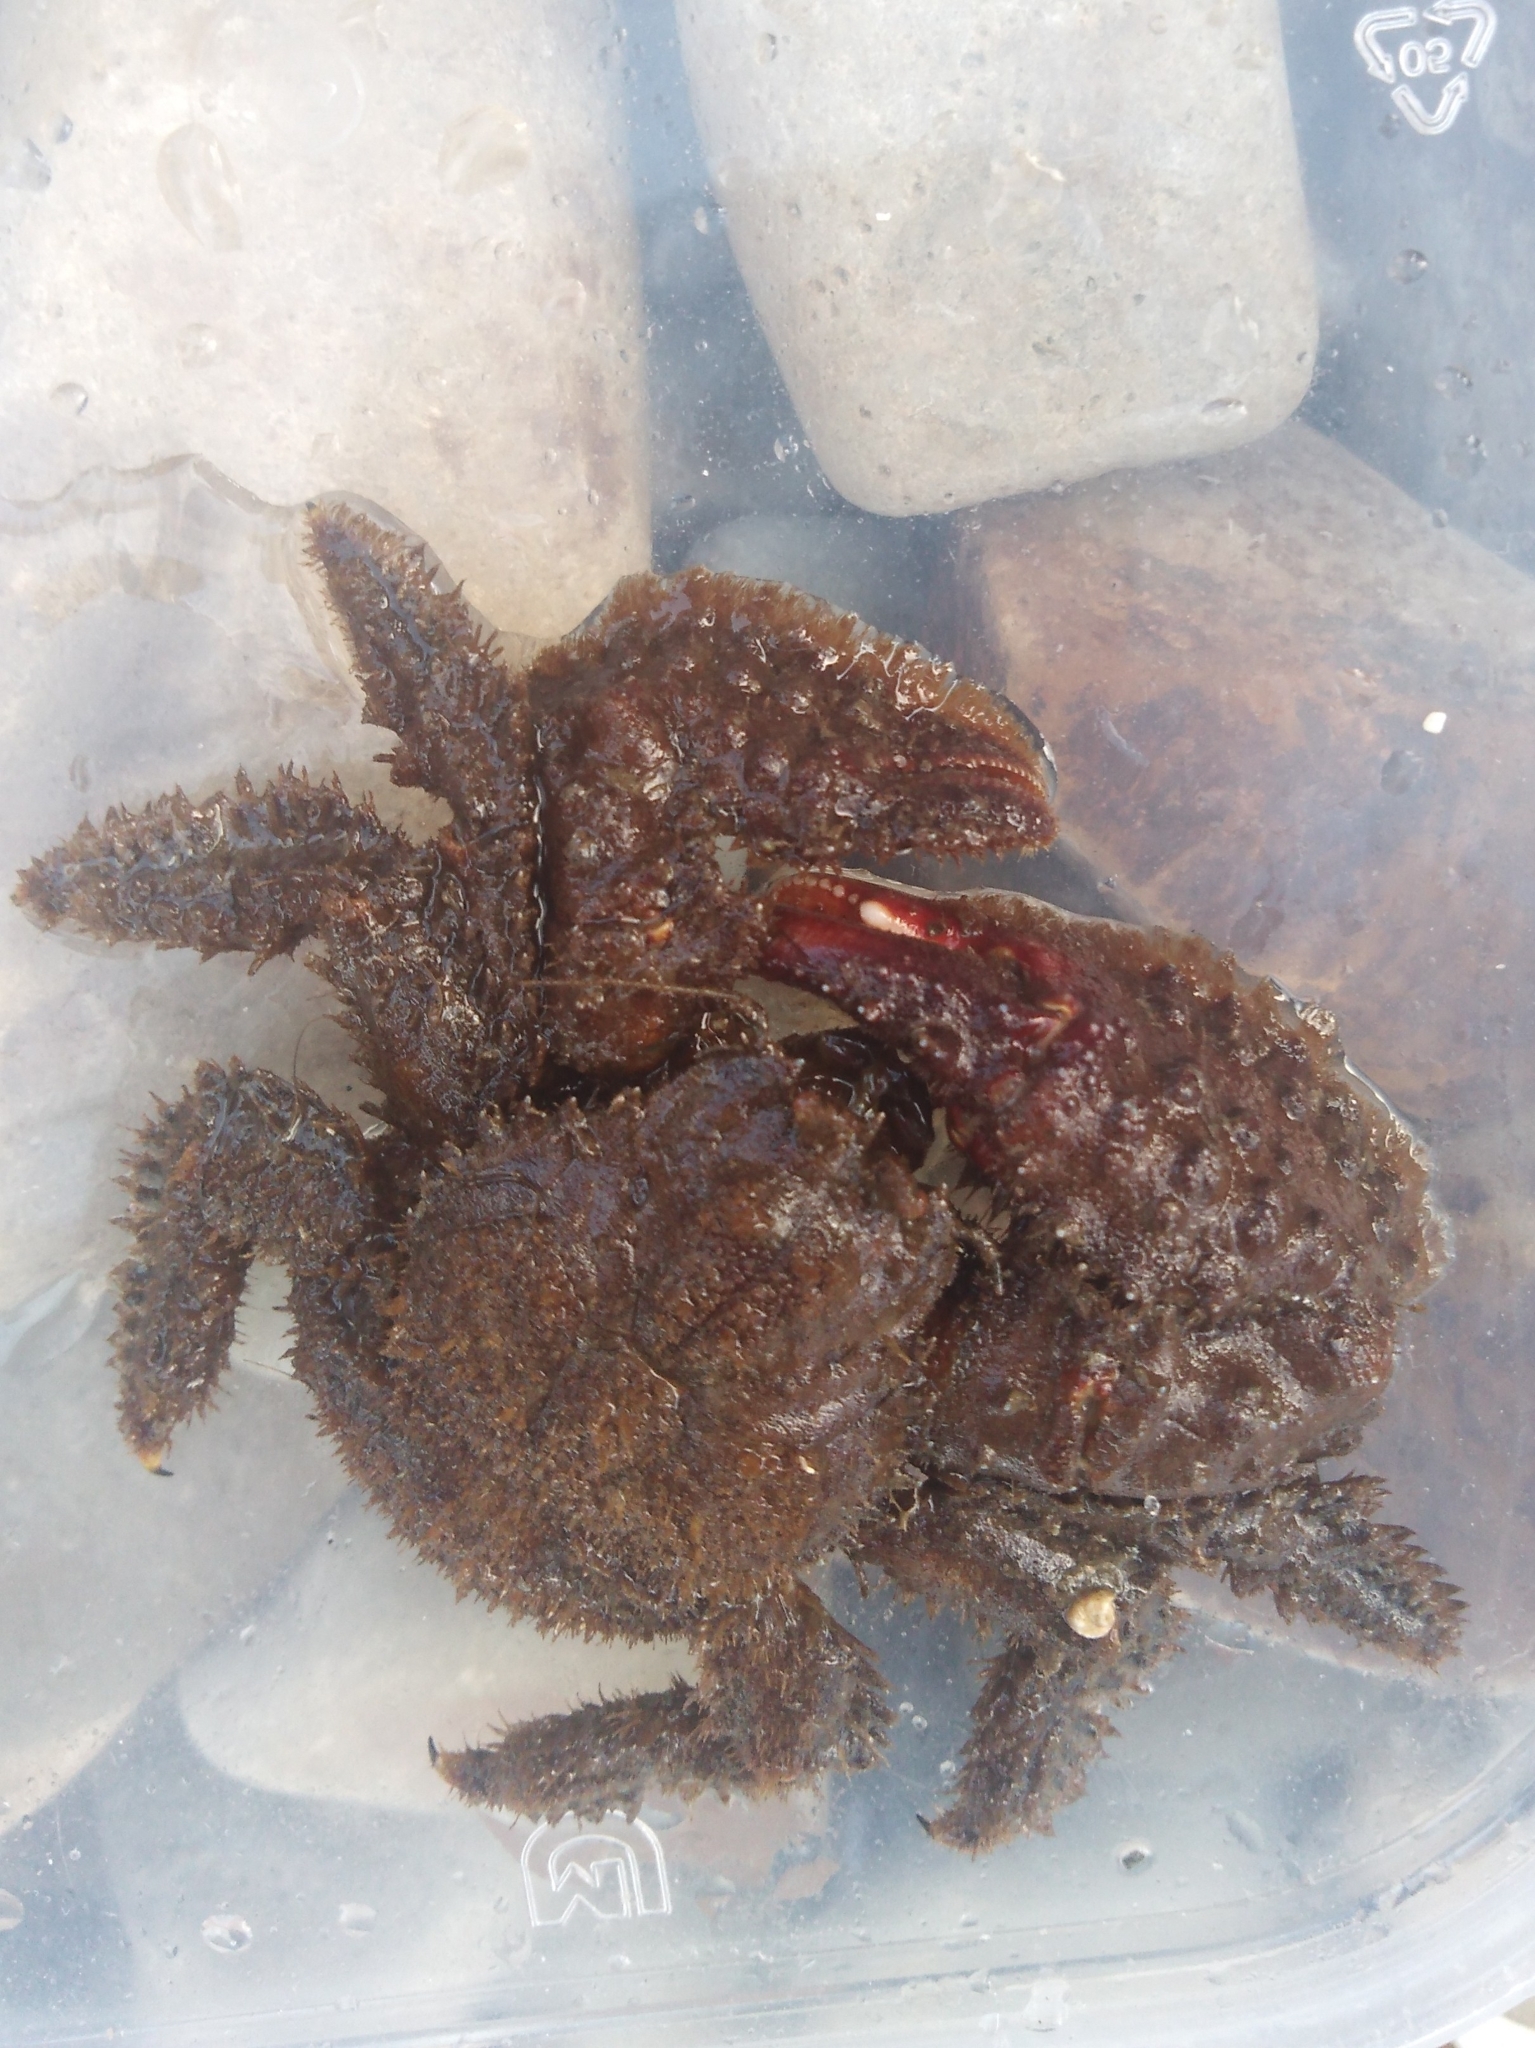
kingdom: Animalia
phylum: Arthropoda
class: Malacostraca
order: Decapoda
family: Hapalogastridae
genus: Hapalogaster
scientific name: Hapalogaster dentata
